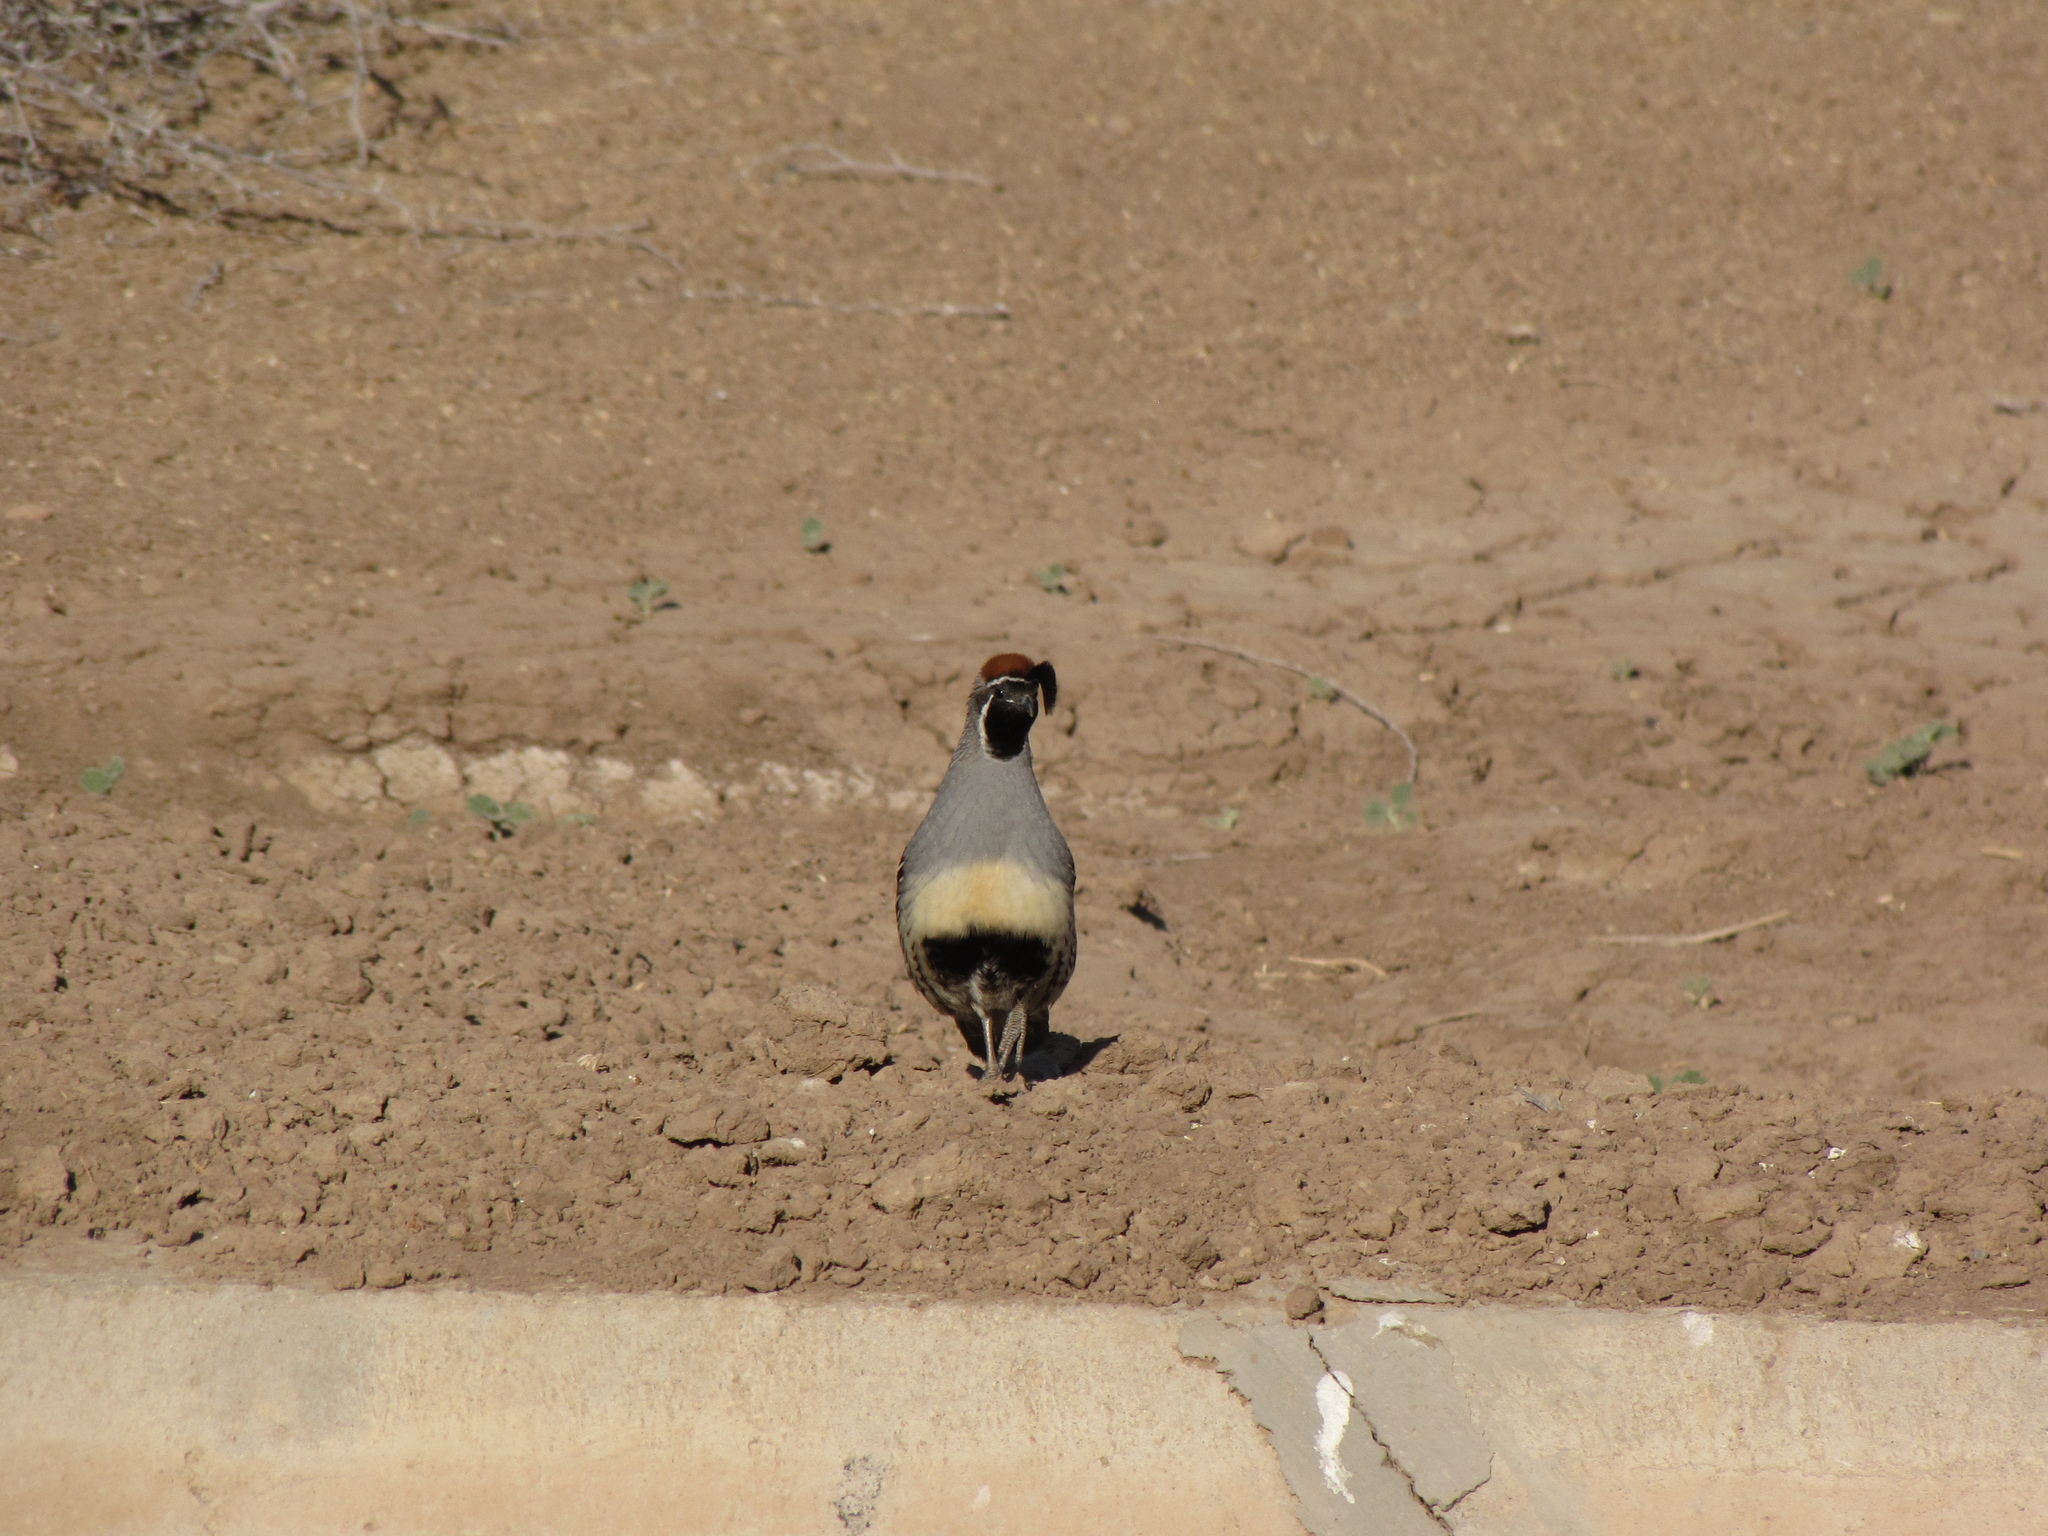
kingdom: Animalia
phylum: Chordata
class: Aves
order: Galliformes
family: Odontophoridae
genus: Callipepla
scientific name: Callipepla gambelii
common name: Gambel's quail
